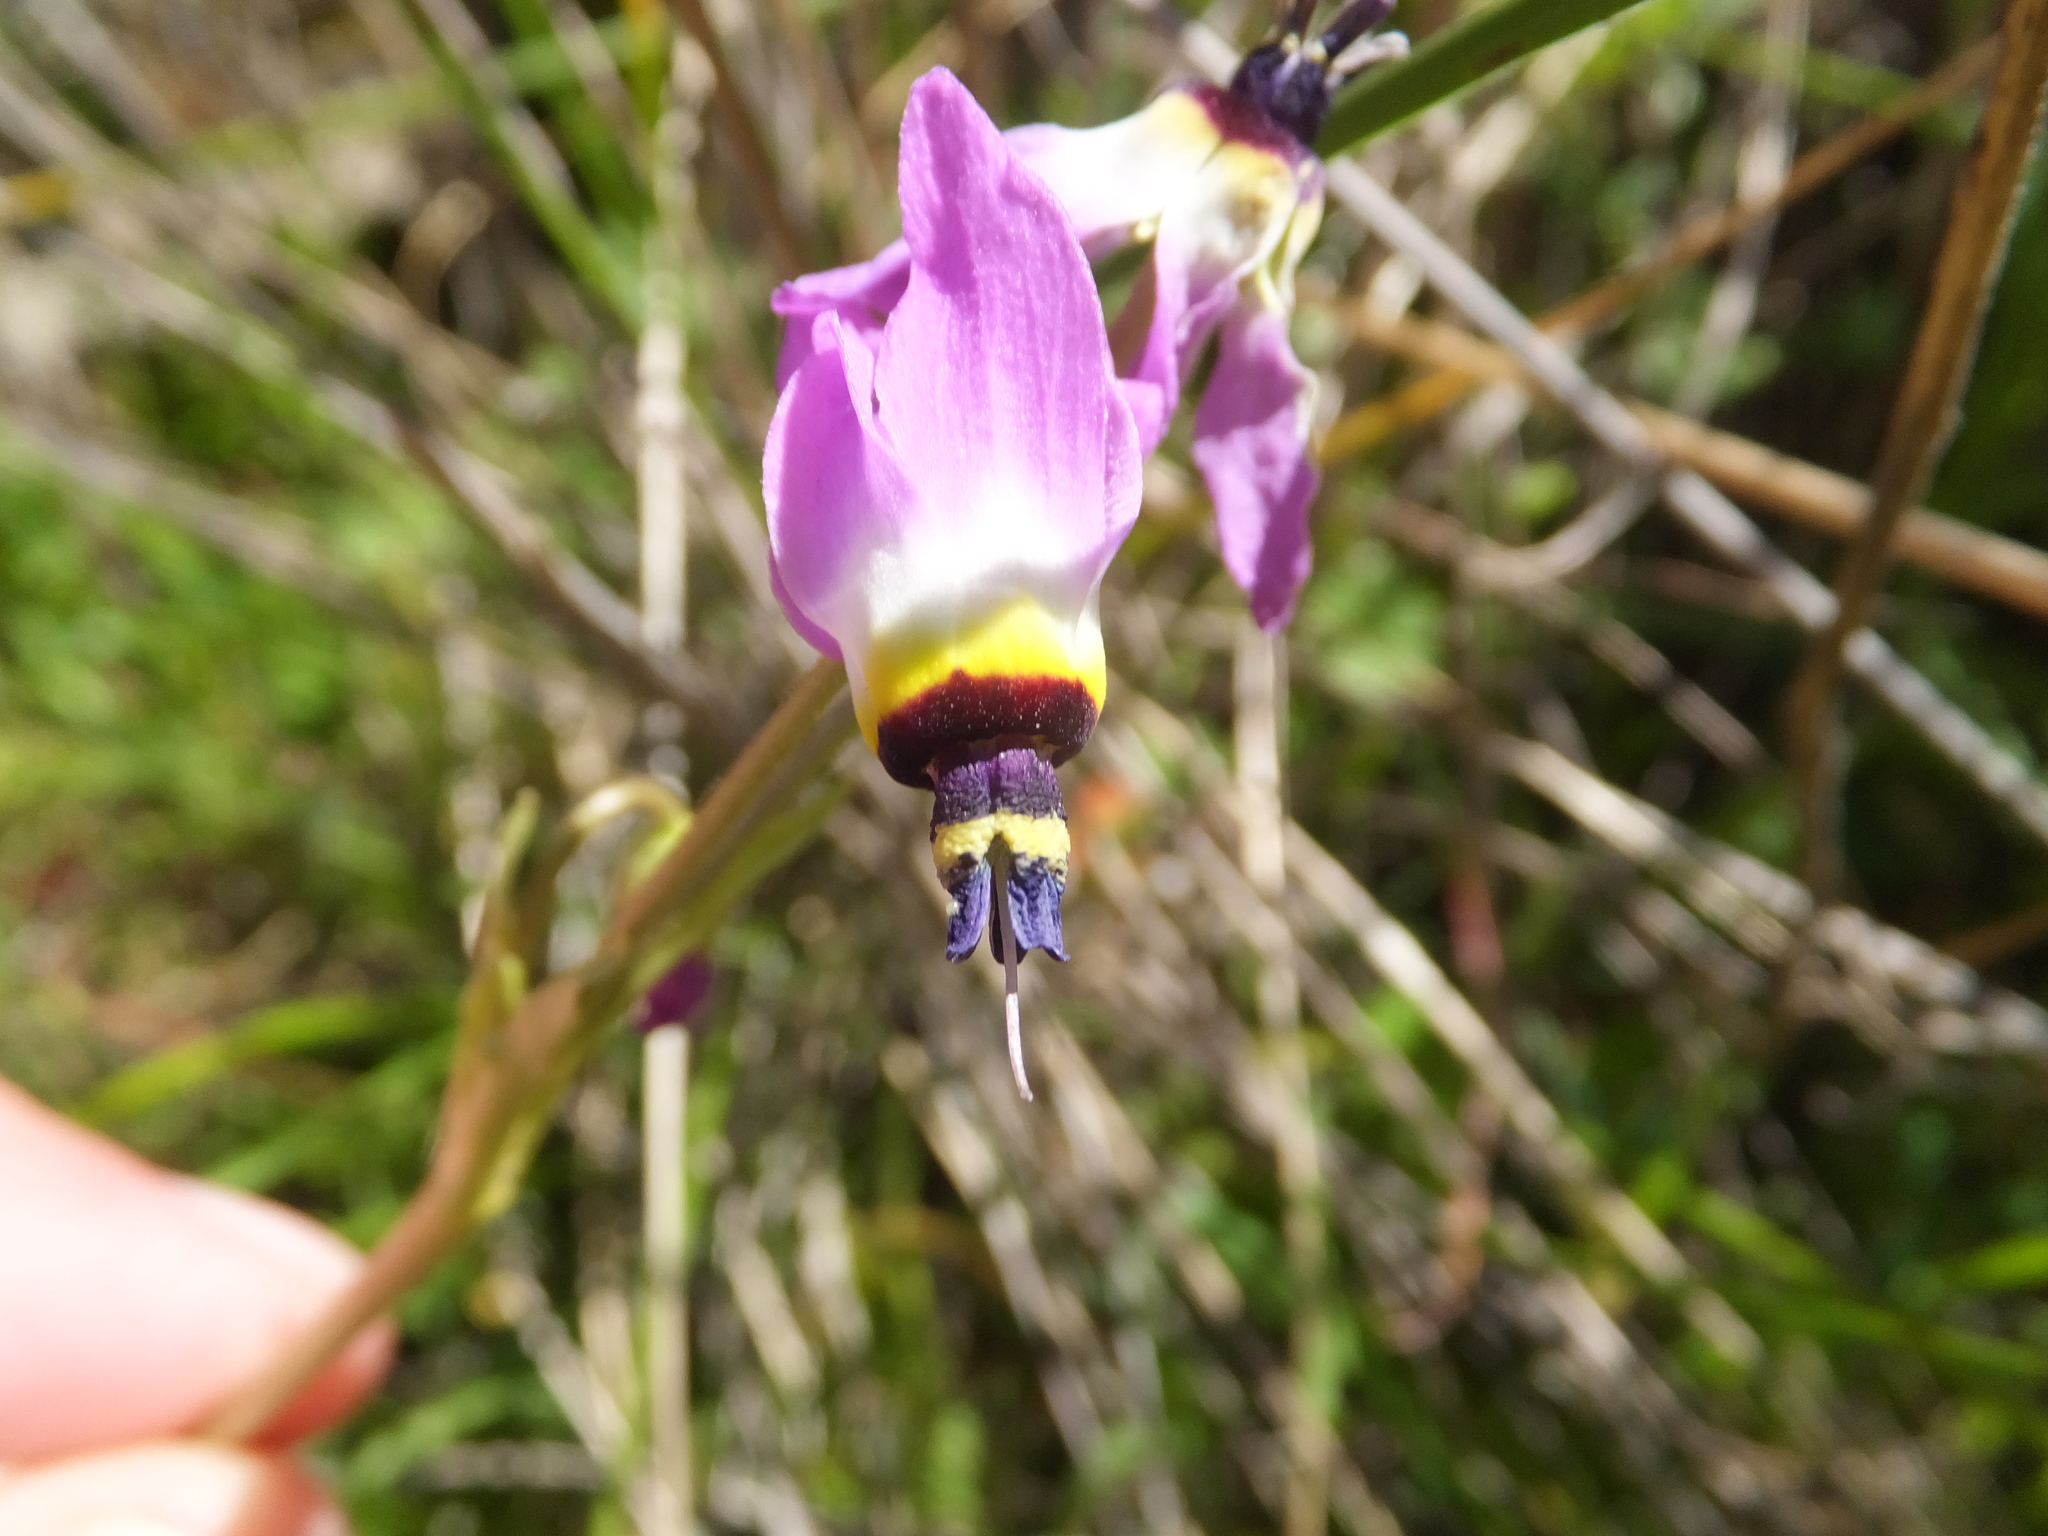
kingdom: Plantae
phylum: Tracheophyta
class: Magnoliopsida
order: Ericales
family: Primulaceae
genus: Dodecatheon
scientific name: Dodecatheon clevelandii
